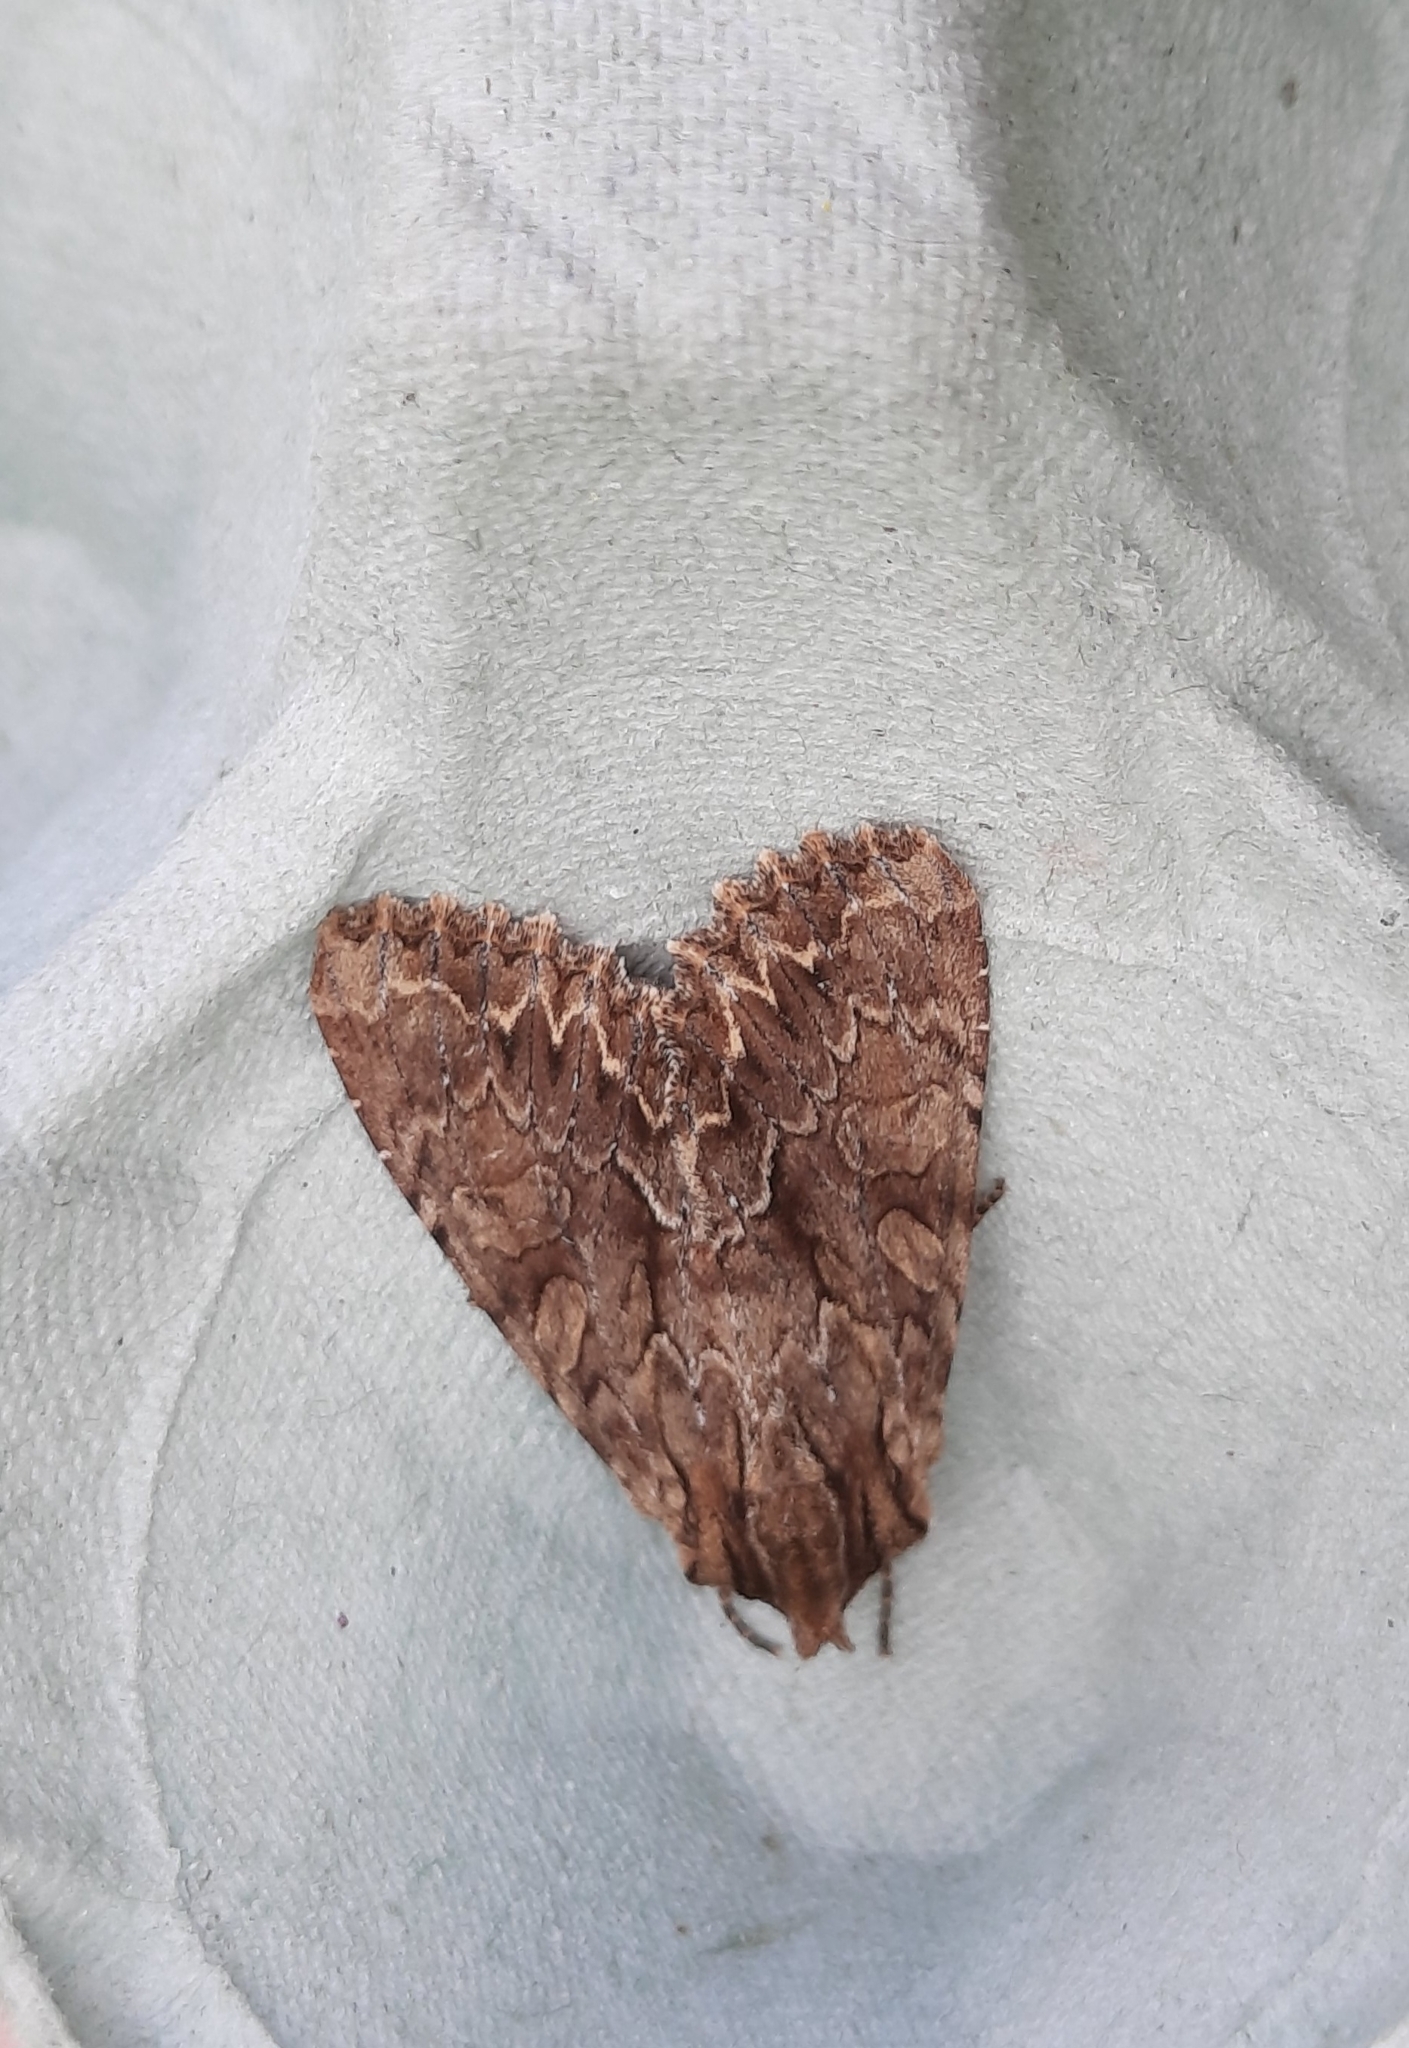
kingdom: Animalia
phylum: Arthropoda
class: Insecta
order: Lepidoptera
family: Noctuidae
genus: Apamea
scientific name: Apamea monoglypha
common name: Dark arches
